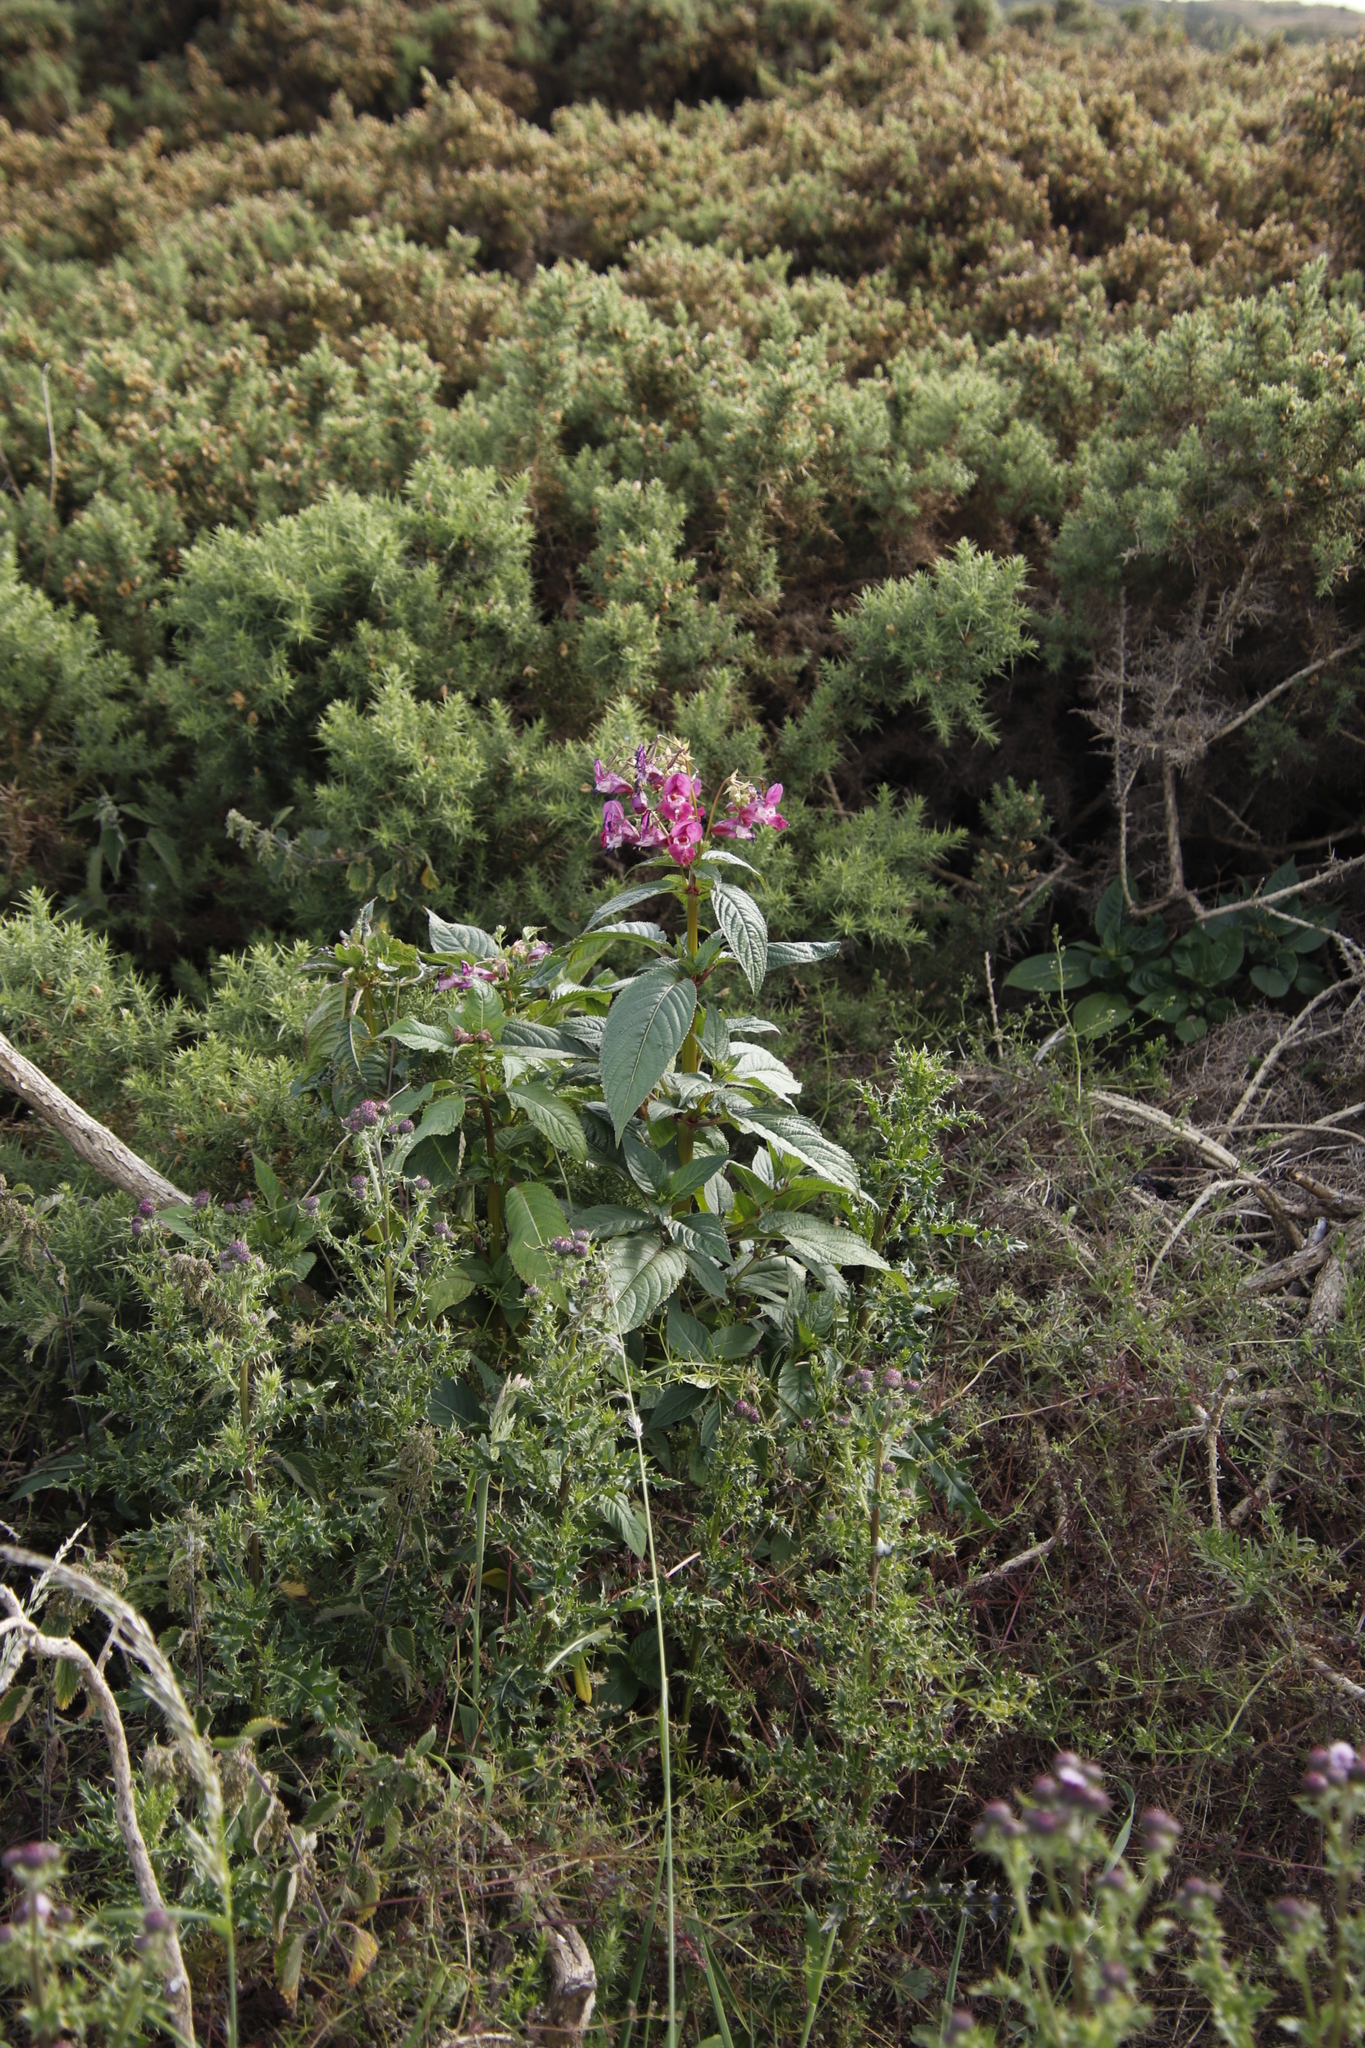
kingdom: Plantae
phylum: Tracheophyta
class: Magnoliopsida
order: Ericales
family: Balsaminaceae
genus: Impatiens
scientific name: Impatiens glandulifera
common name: Himalayan balsam
